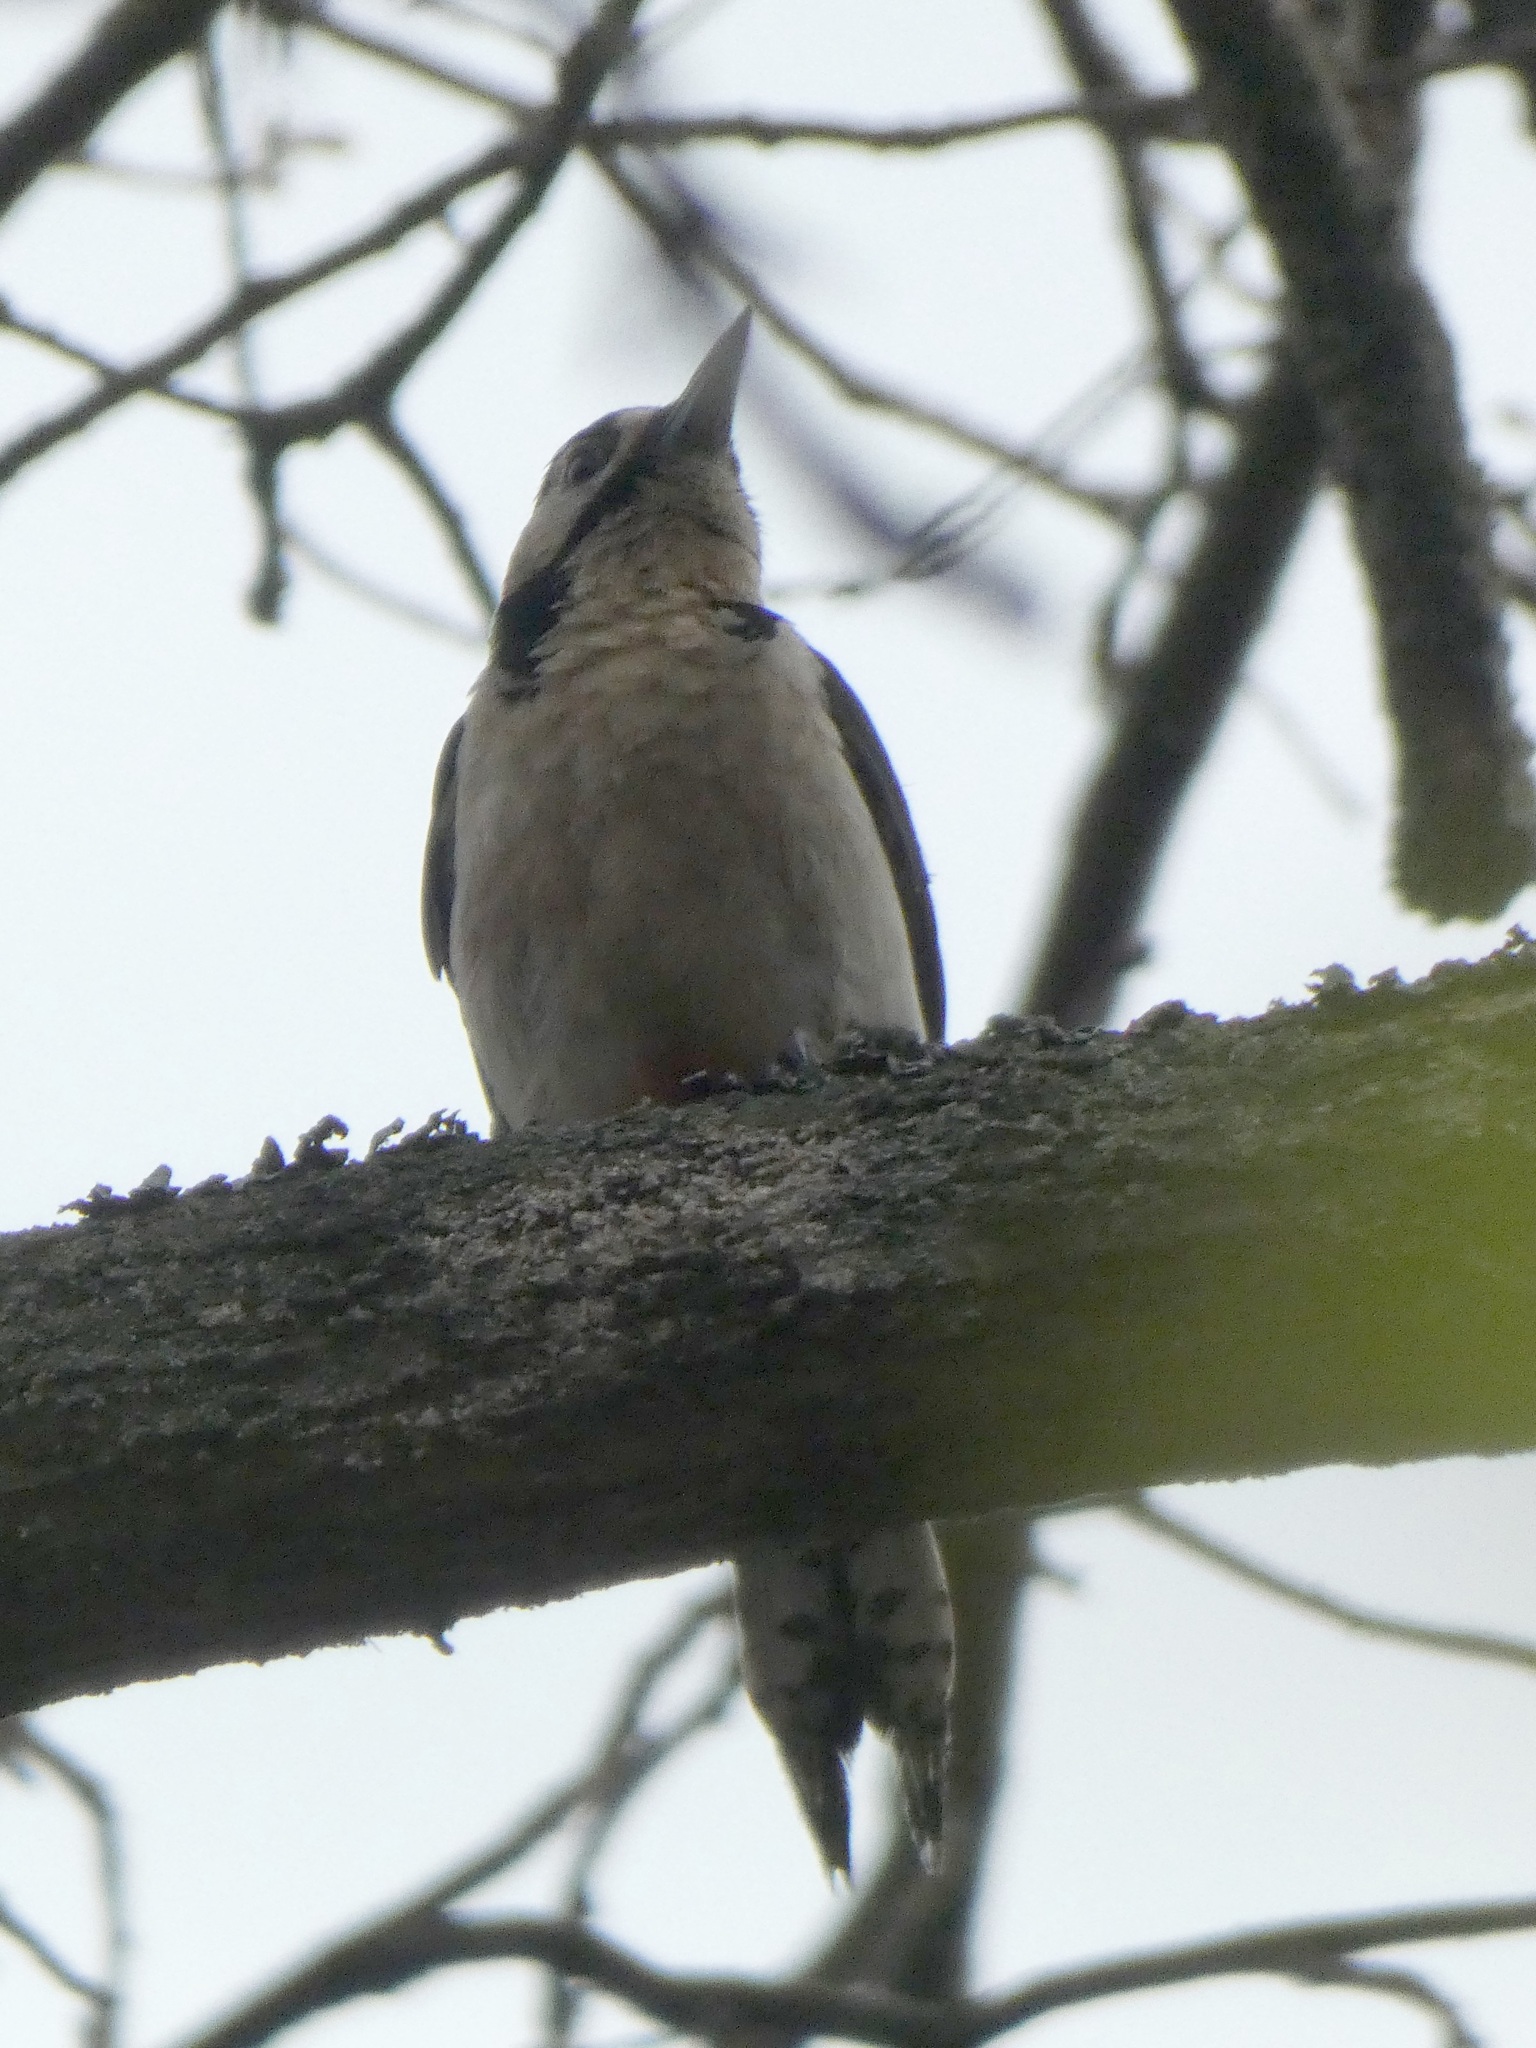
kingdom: Animalia
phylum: Chordata
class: Aves
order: Piciformes
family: Picidae
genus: Dendrocopos
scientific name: Dendrocopos major
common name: Great spotted woodpecker
